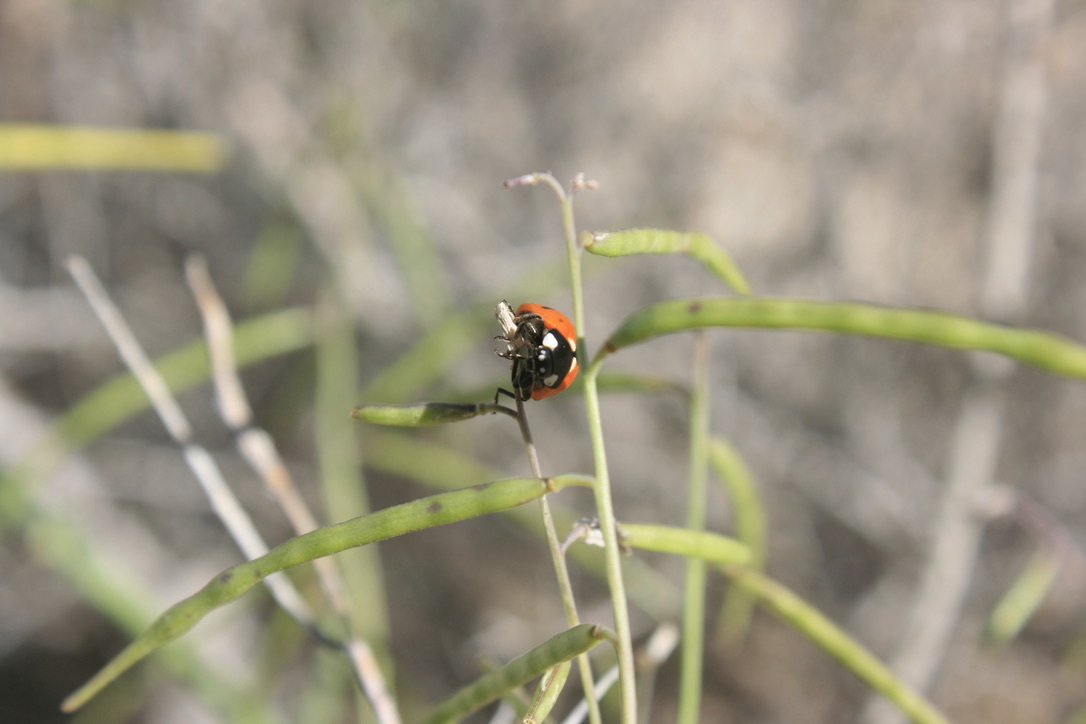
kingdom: Animalia
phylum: Arthropoda
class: Insecta
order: Coleoptera
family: Coccinellidae
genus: Coccinella
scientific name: Coccinella septempunctata
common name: Sevenspotted lady beetle
